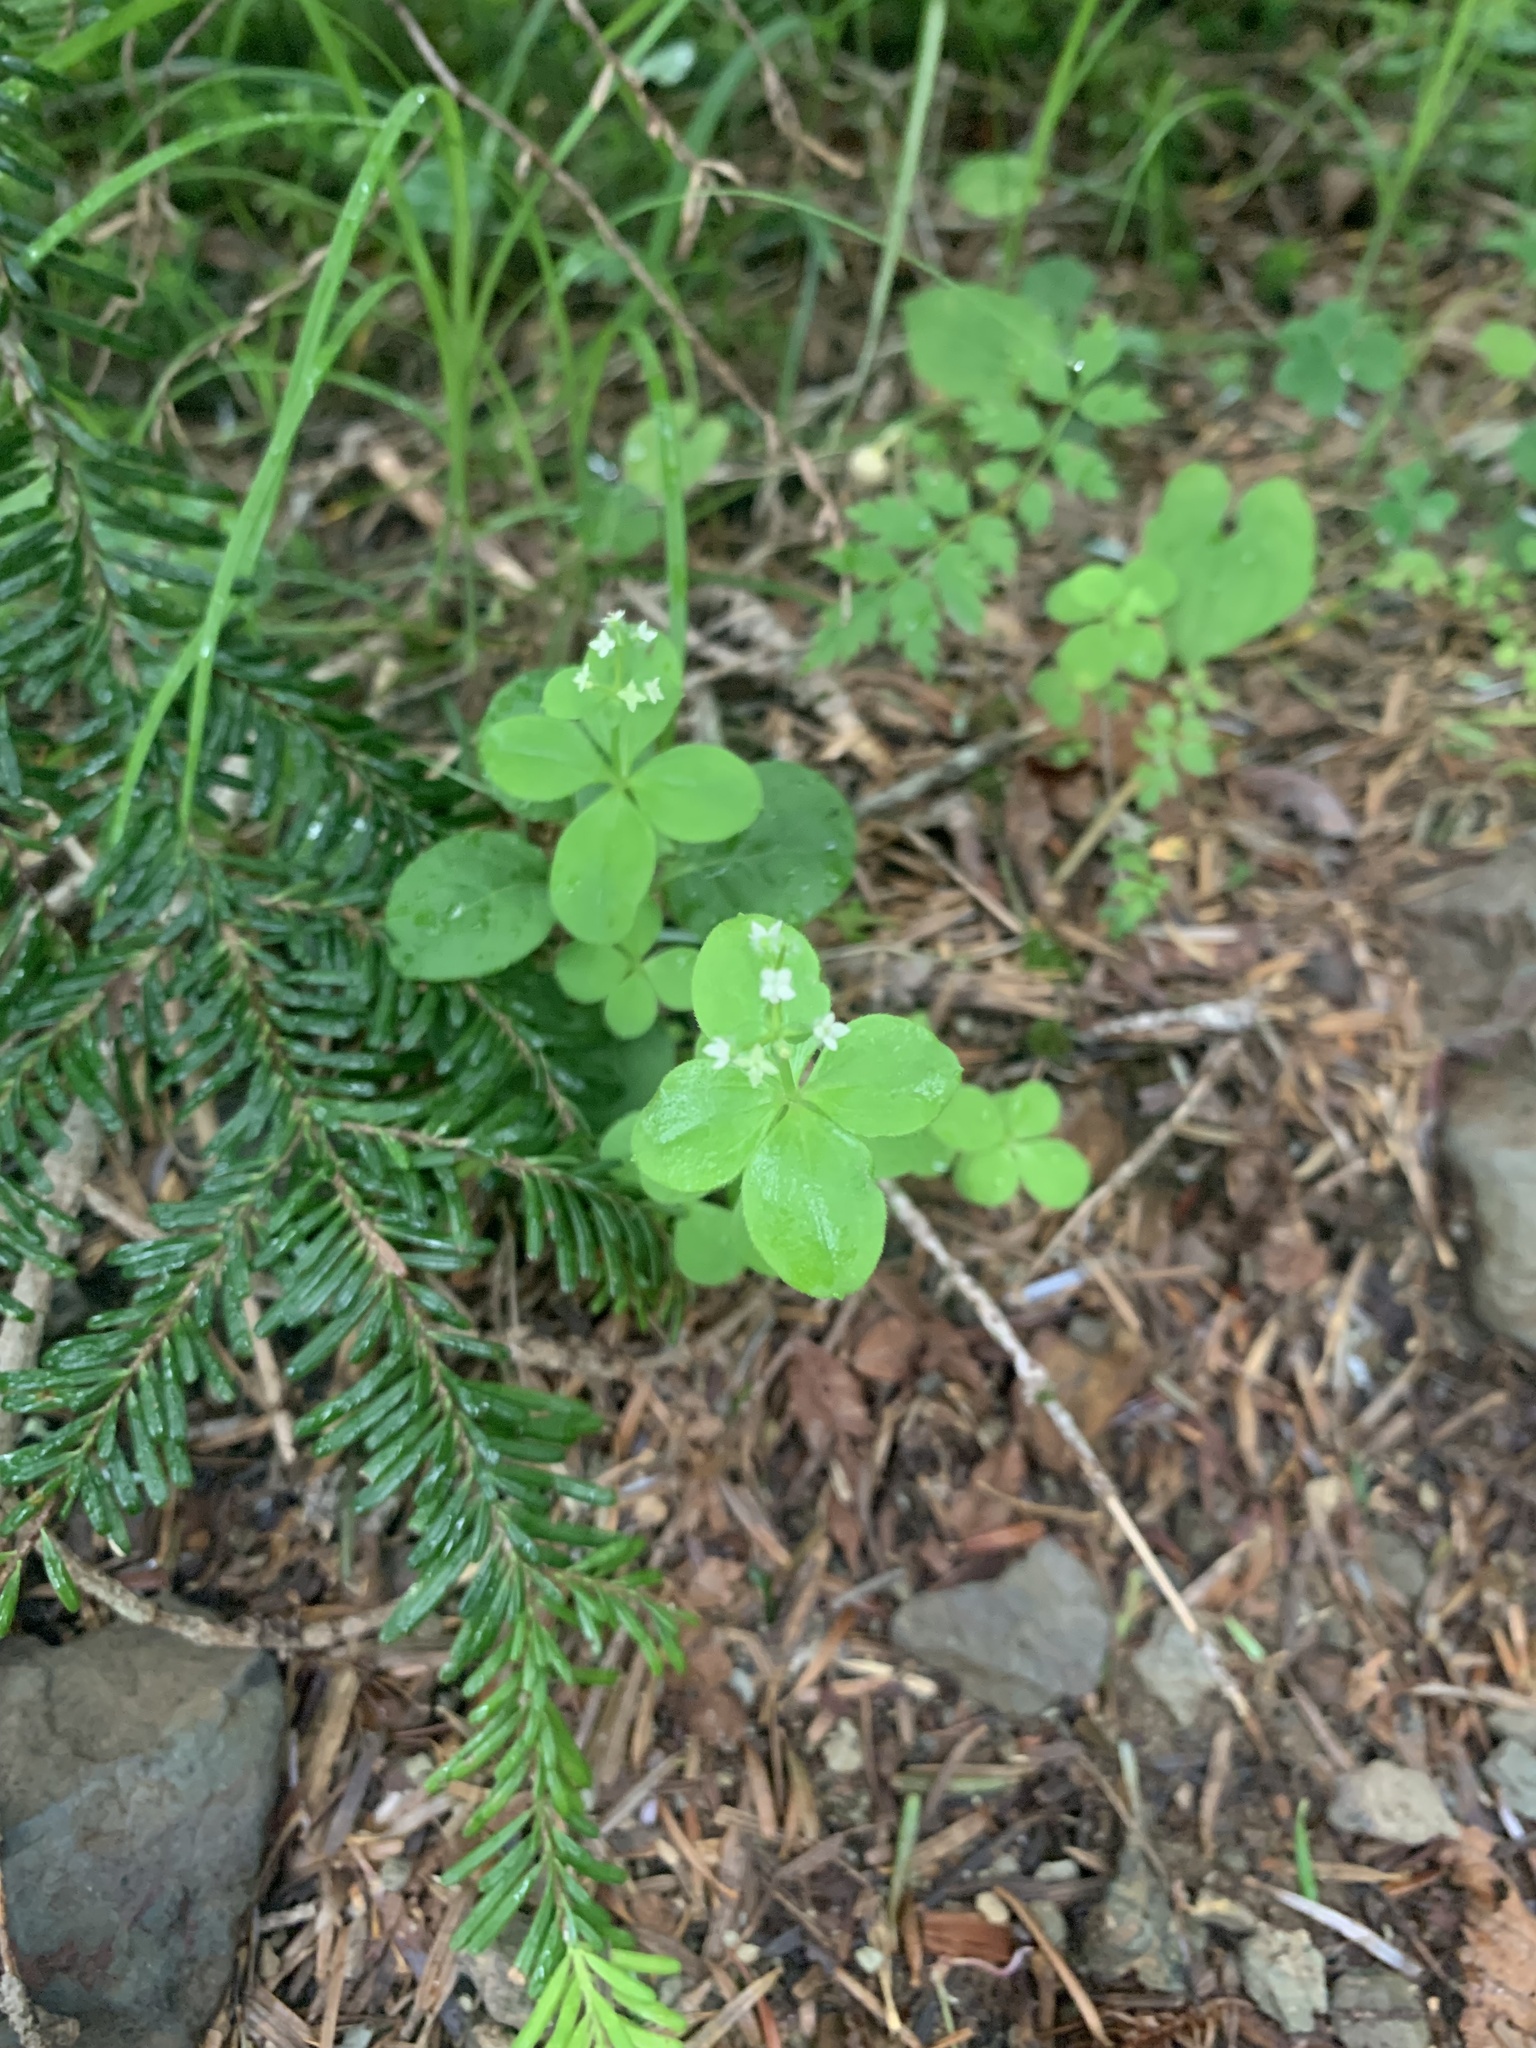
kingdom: Plantae
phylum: Tracheophyta
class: Magnoliopsida
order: Gentianales
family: Rubiaceae
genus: Galium
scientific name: Galium kamtschaticum
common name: Boreal bedstraw
